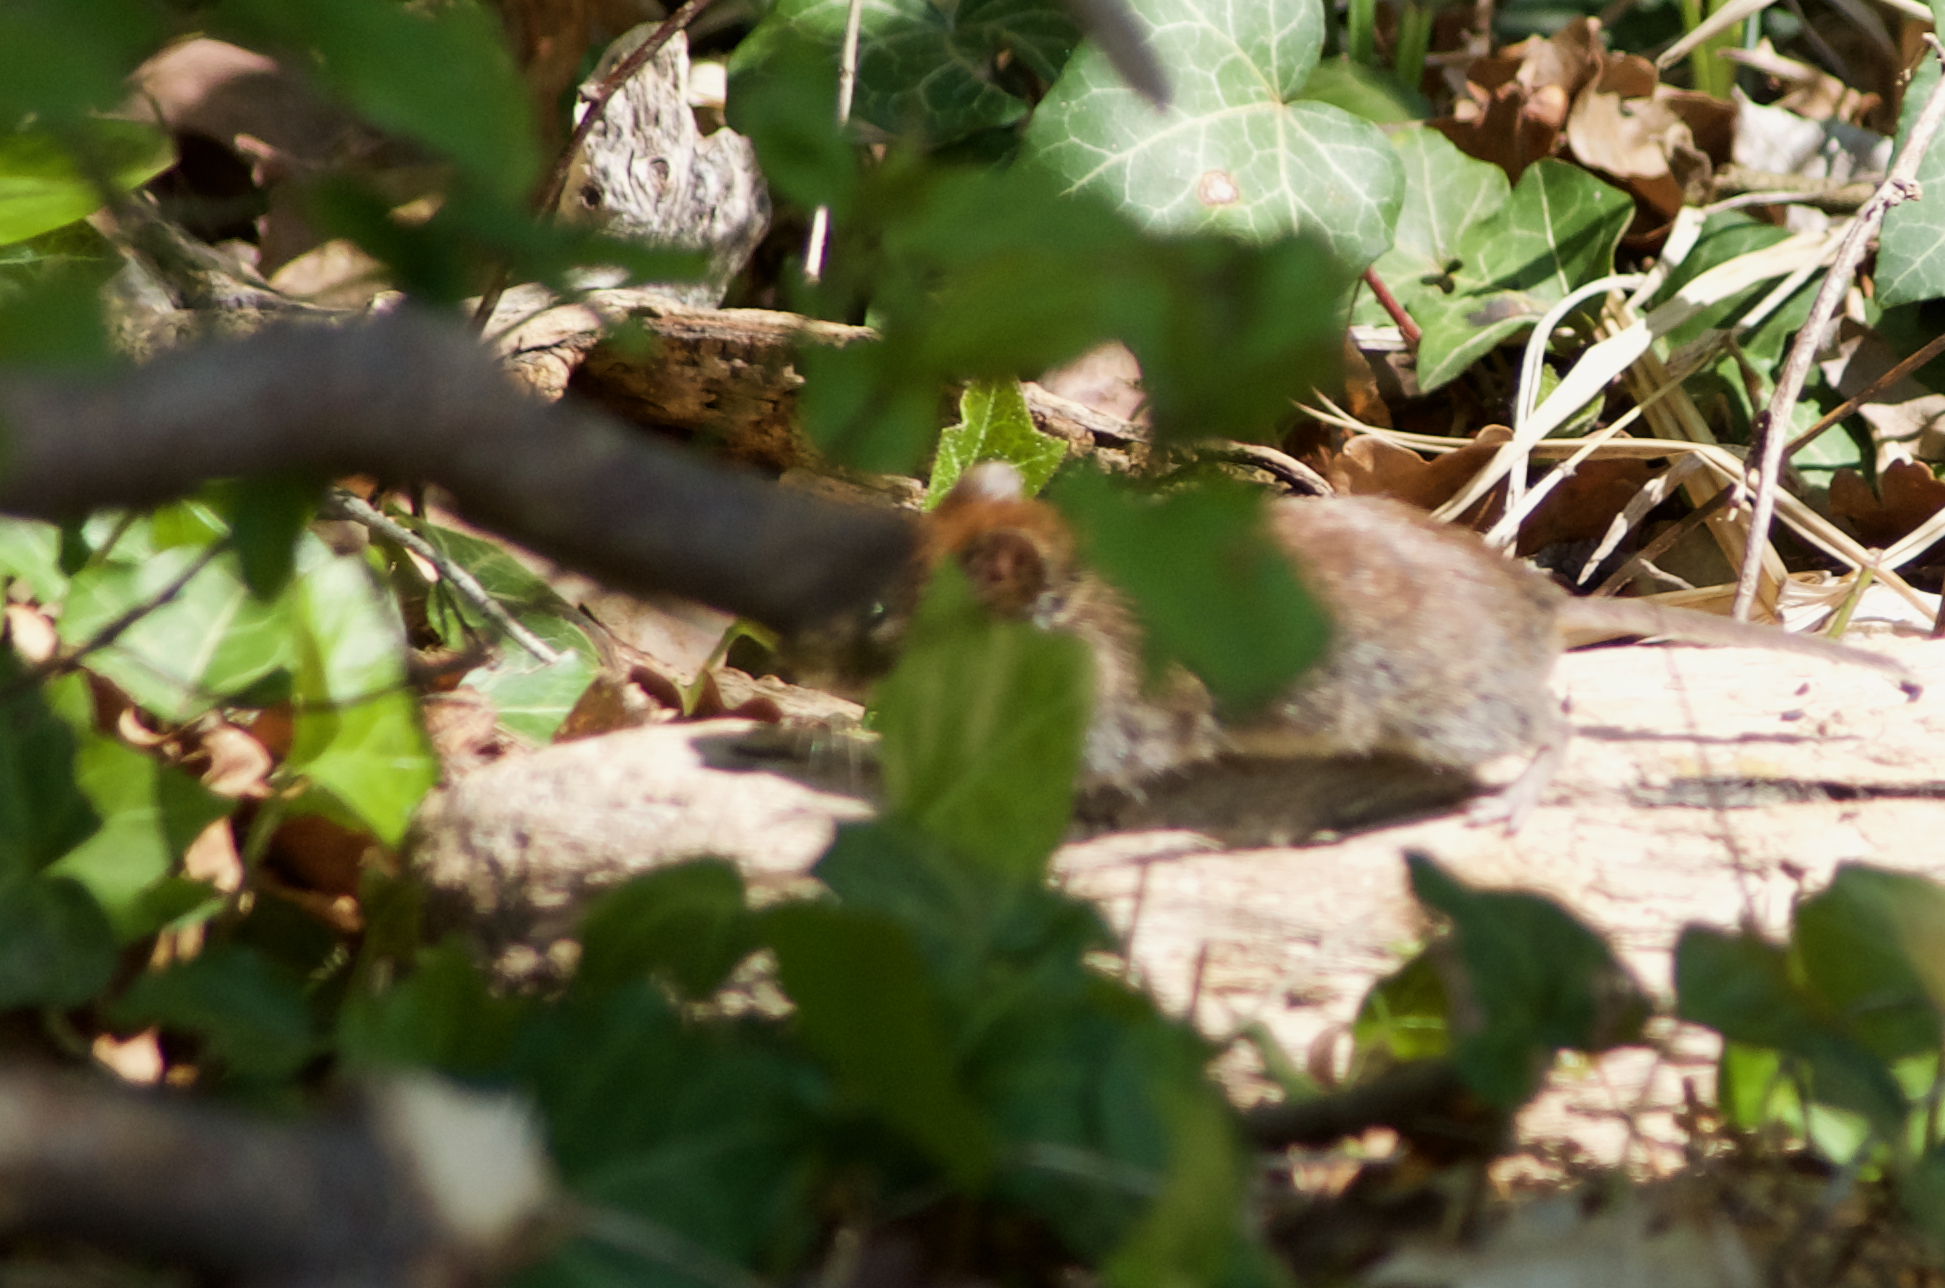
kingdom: Animalia
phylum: Chordata
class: Mammalia
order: Rodentia
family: Cricetidae
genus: Myodes
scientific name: Myodes glareolus
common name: Bank vole
